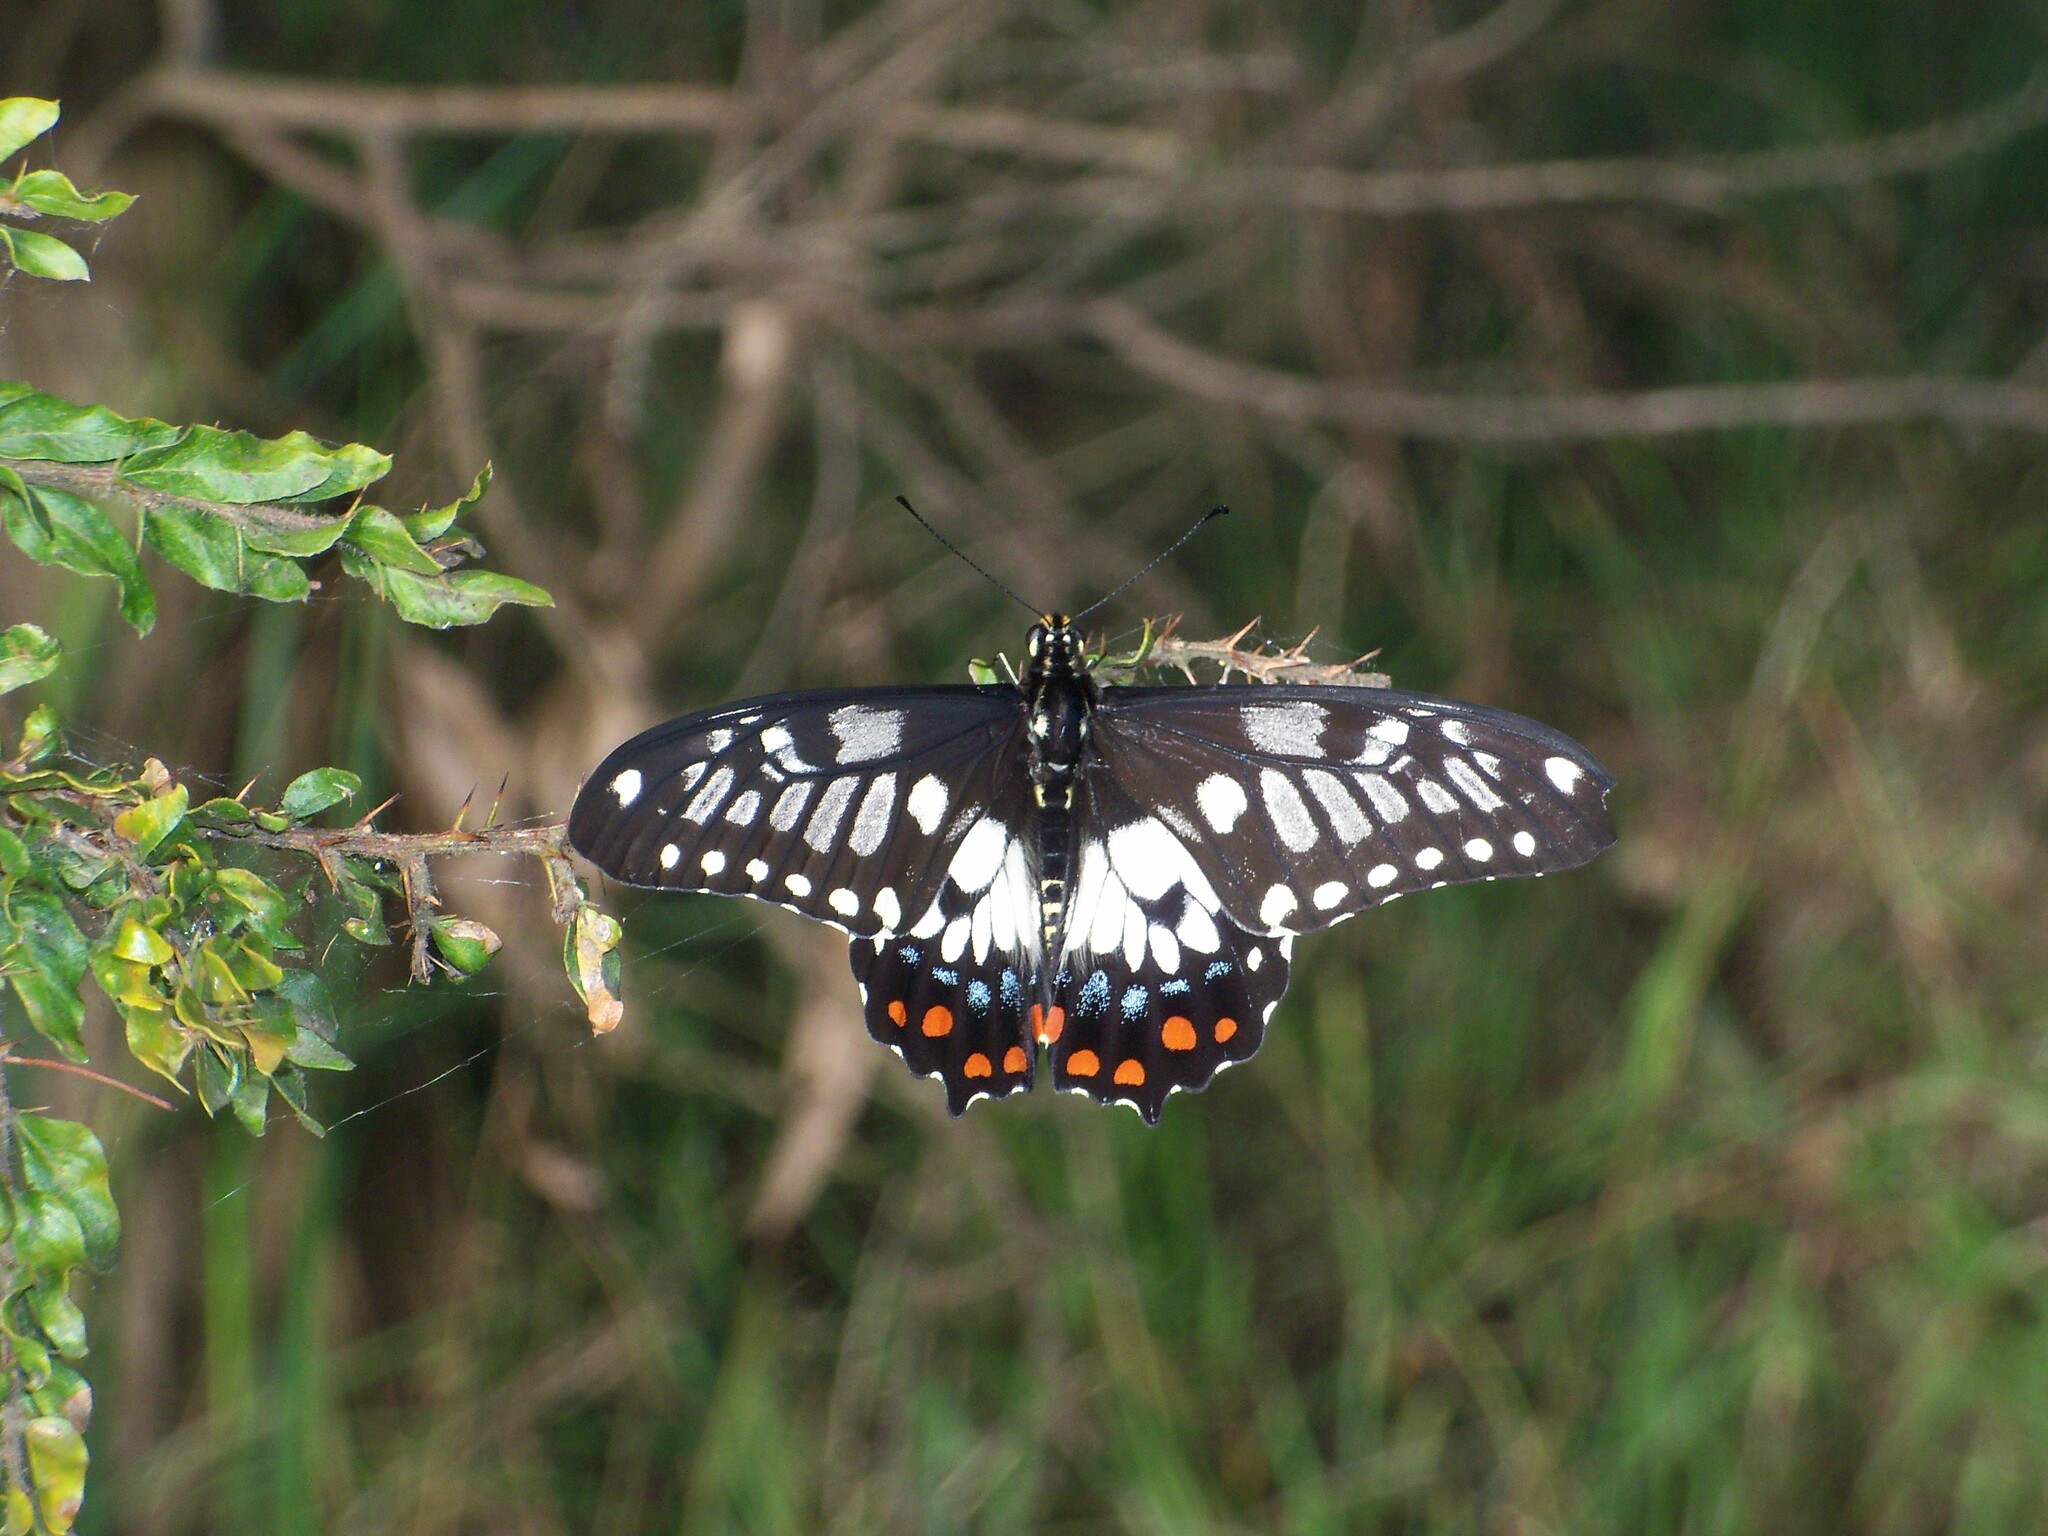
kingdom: Animalia
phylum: Arthropoda
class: Insecta
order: Lepidoptera
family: Papilionidae
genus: Papilio
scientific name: Papilio anactus
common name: Dingy swallowtail
